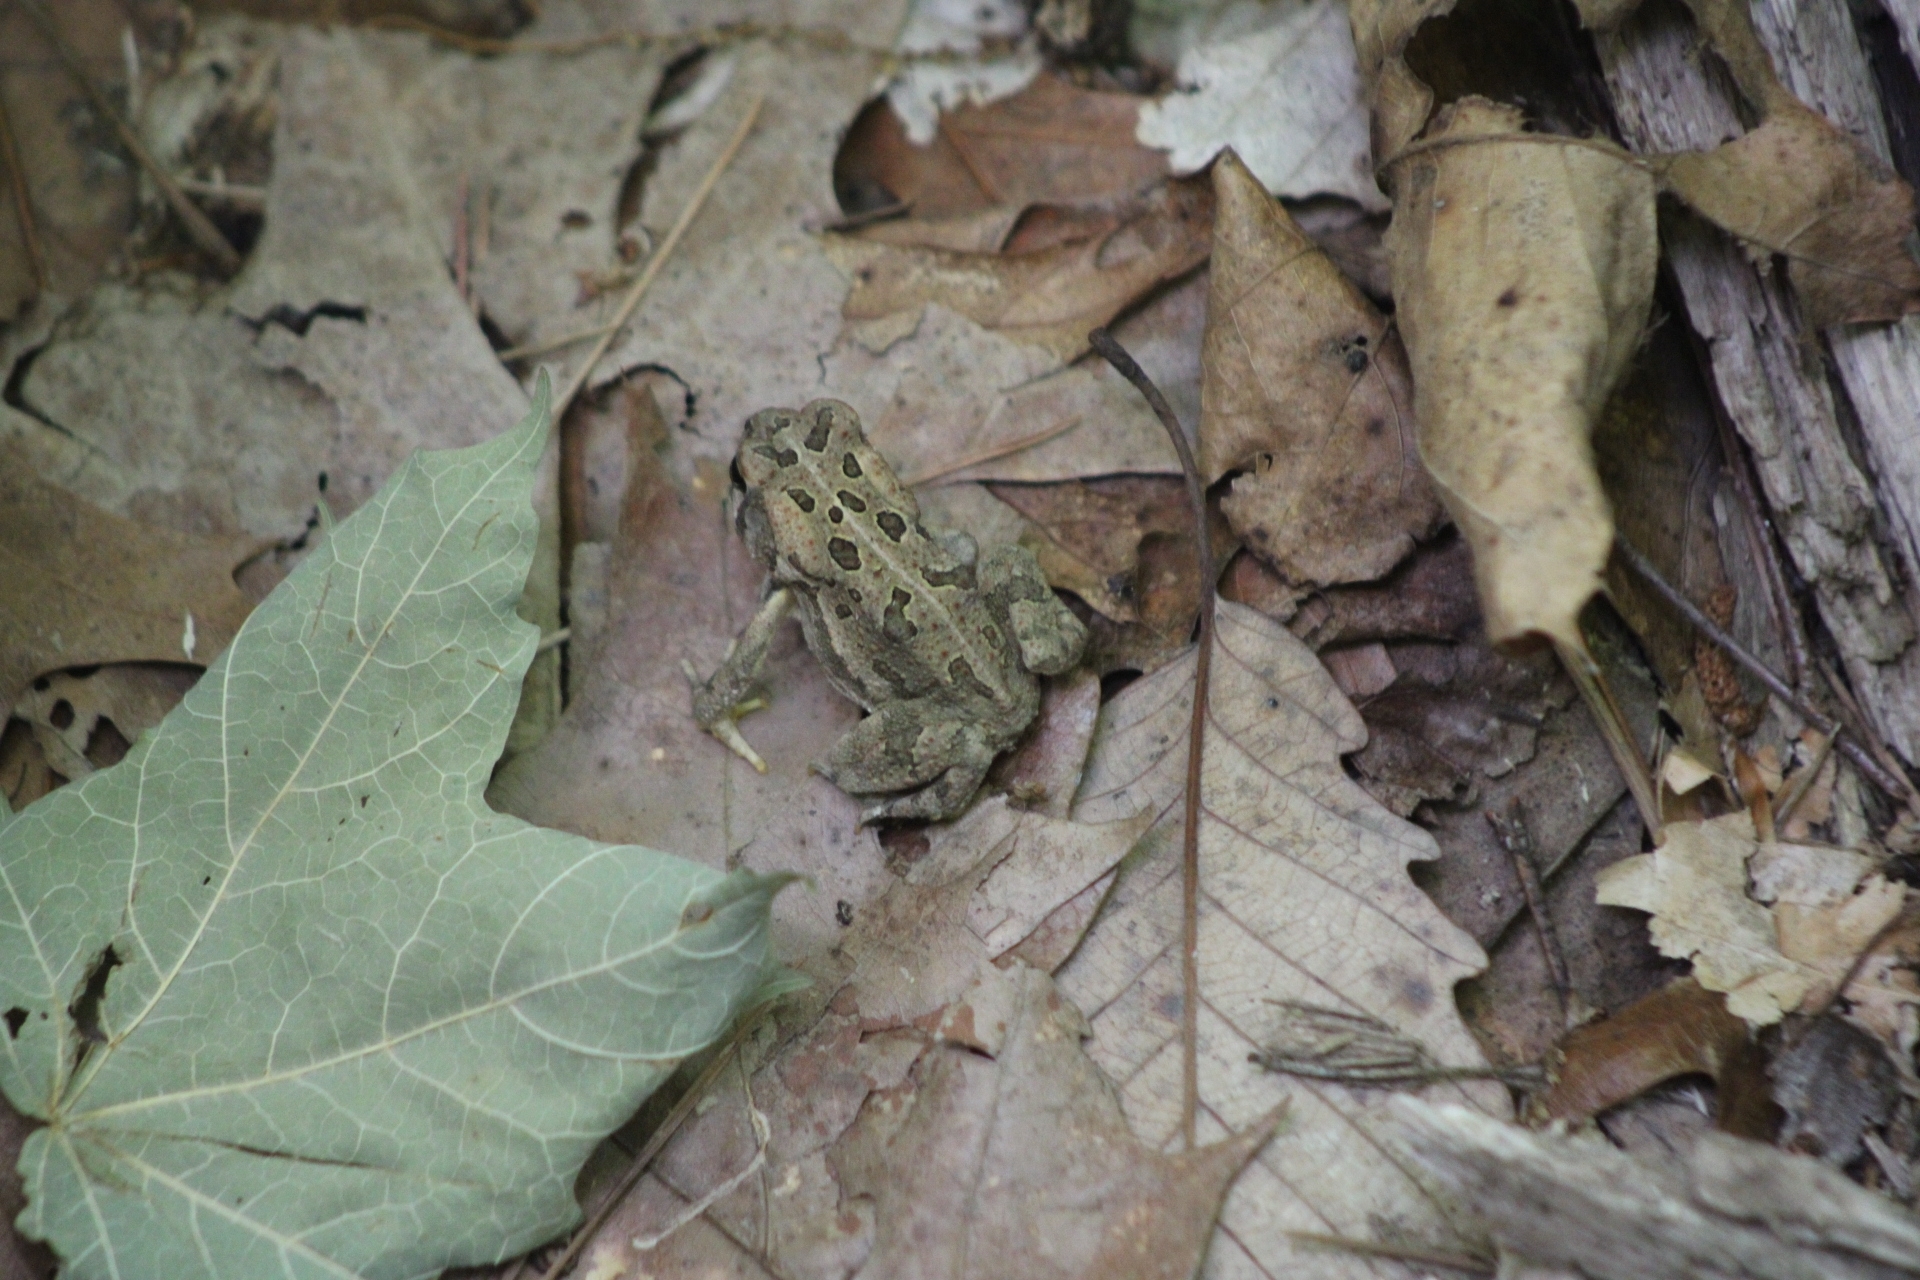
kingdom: Animalia
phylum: Chordata
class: Amphibia
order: Anura
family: Bufonidae
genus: Anaxyrus
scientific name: Anaxyrus fowleri
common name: Fowler's toad
